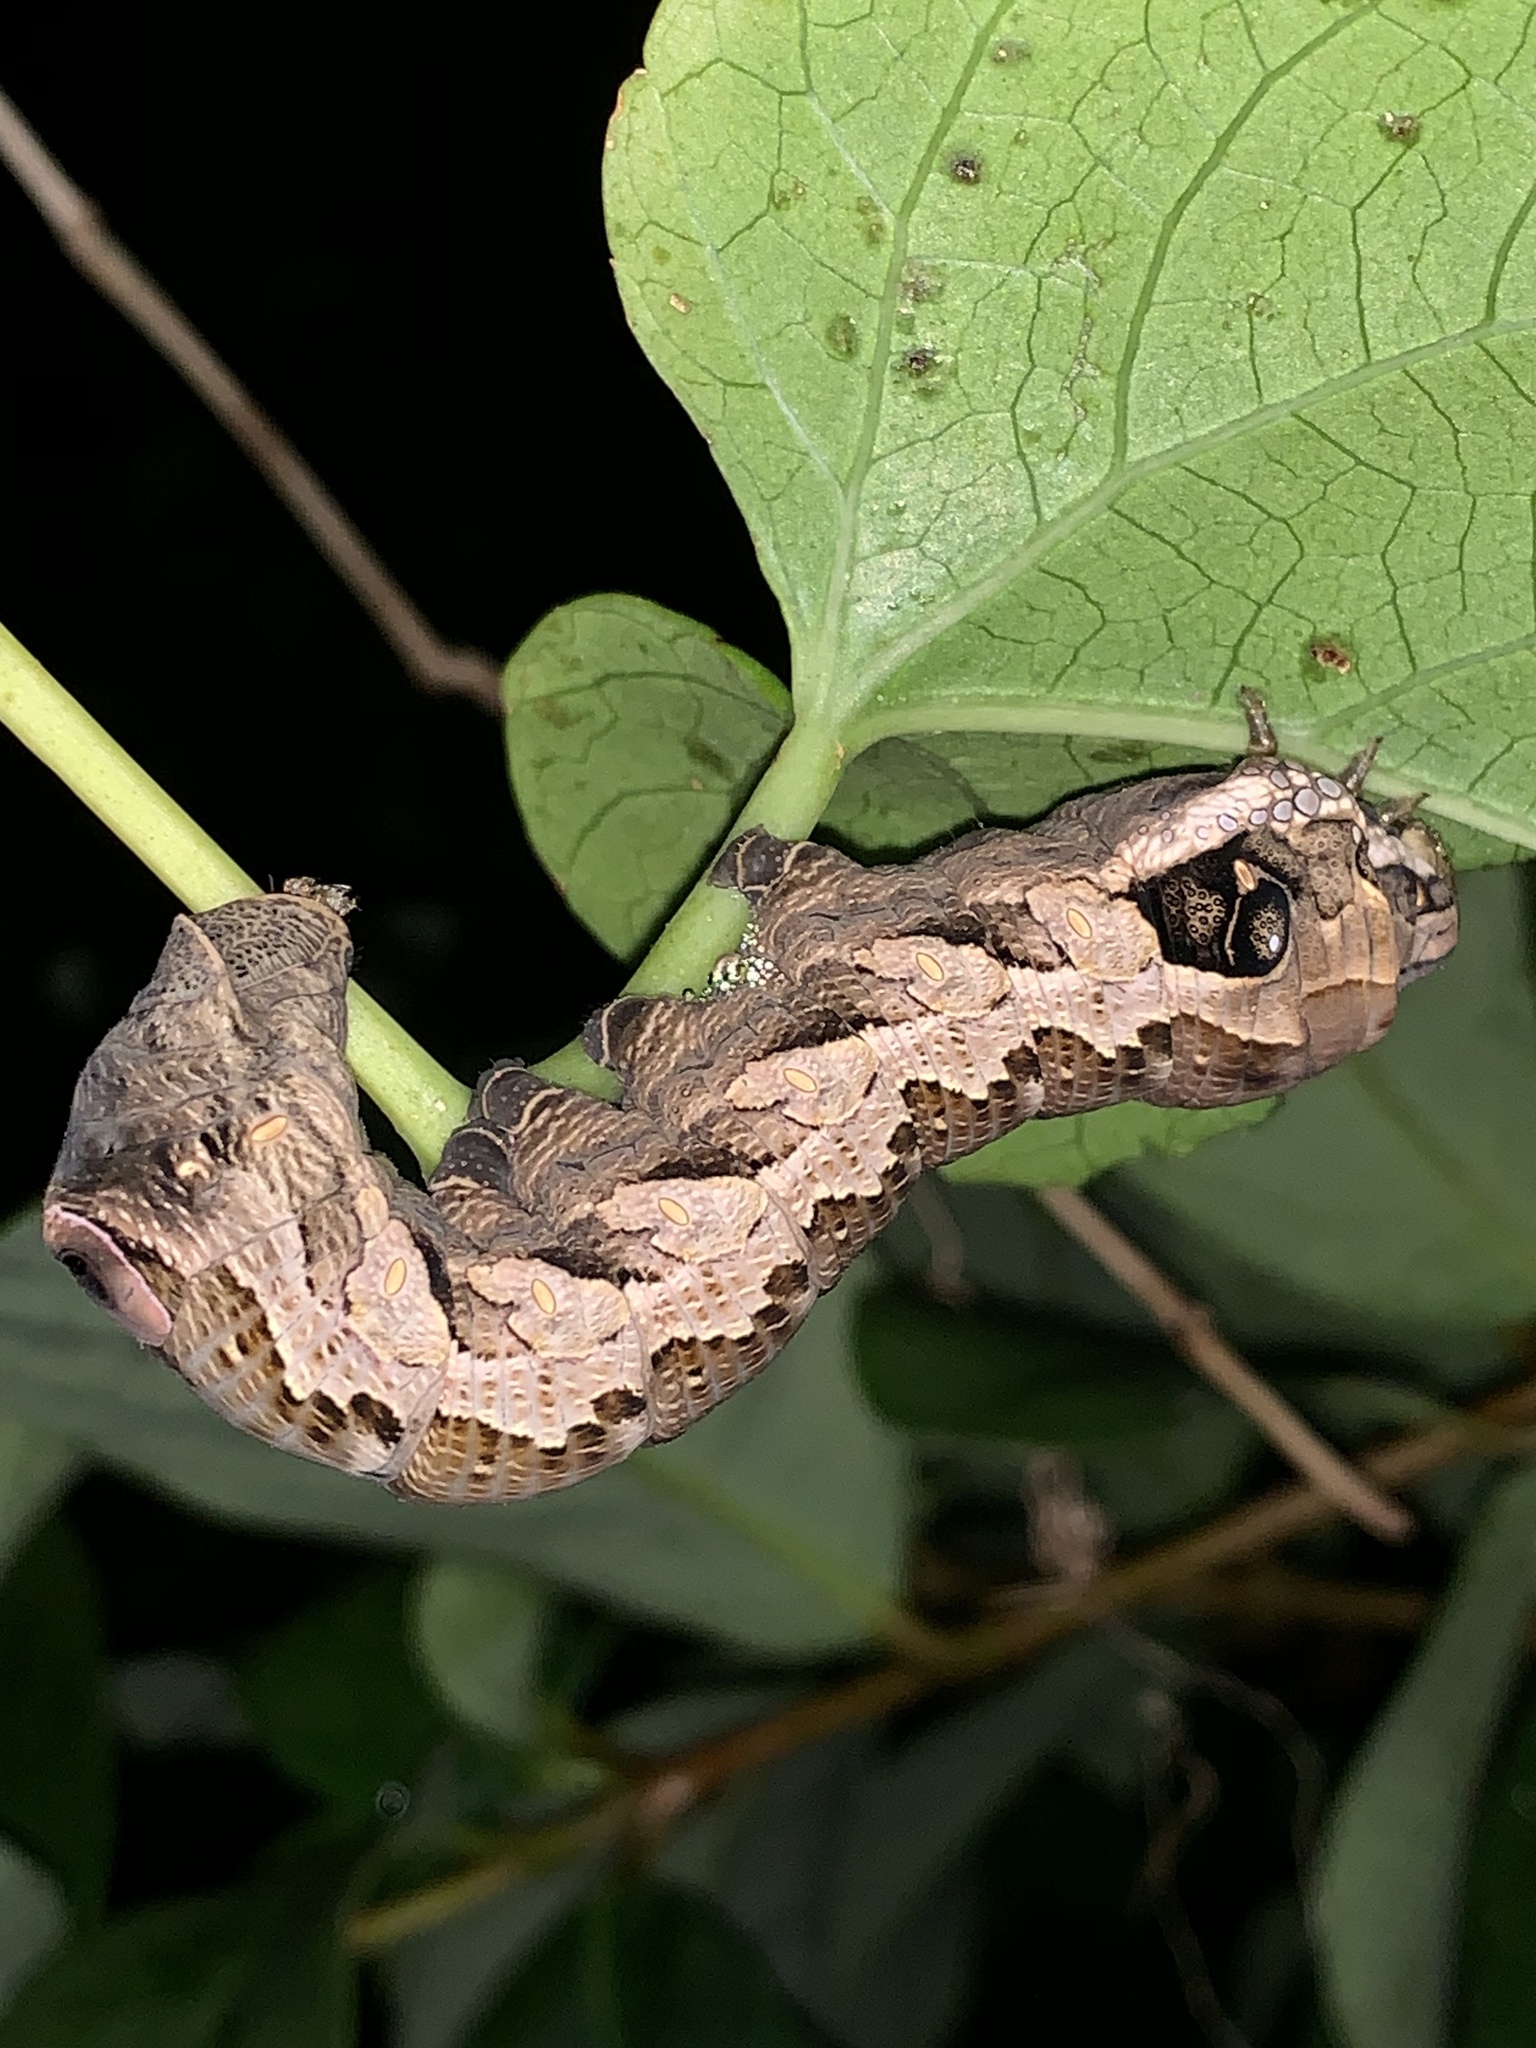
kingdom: Animalia
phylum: Arthropoda
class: Insecta
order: Lepidoptera
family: Sphingidae
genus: Eumorpha
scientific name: Eumorpha labruscae
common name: Gaudy sphinx
